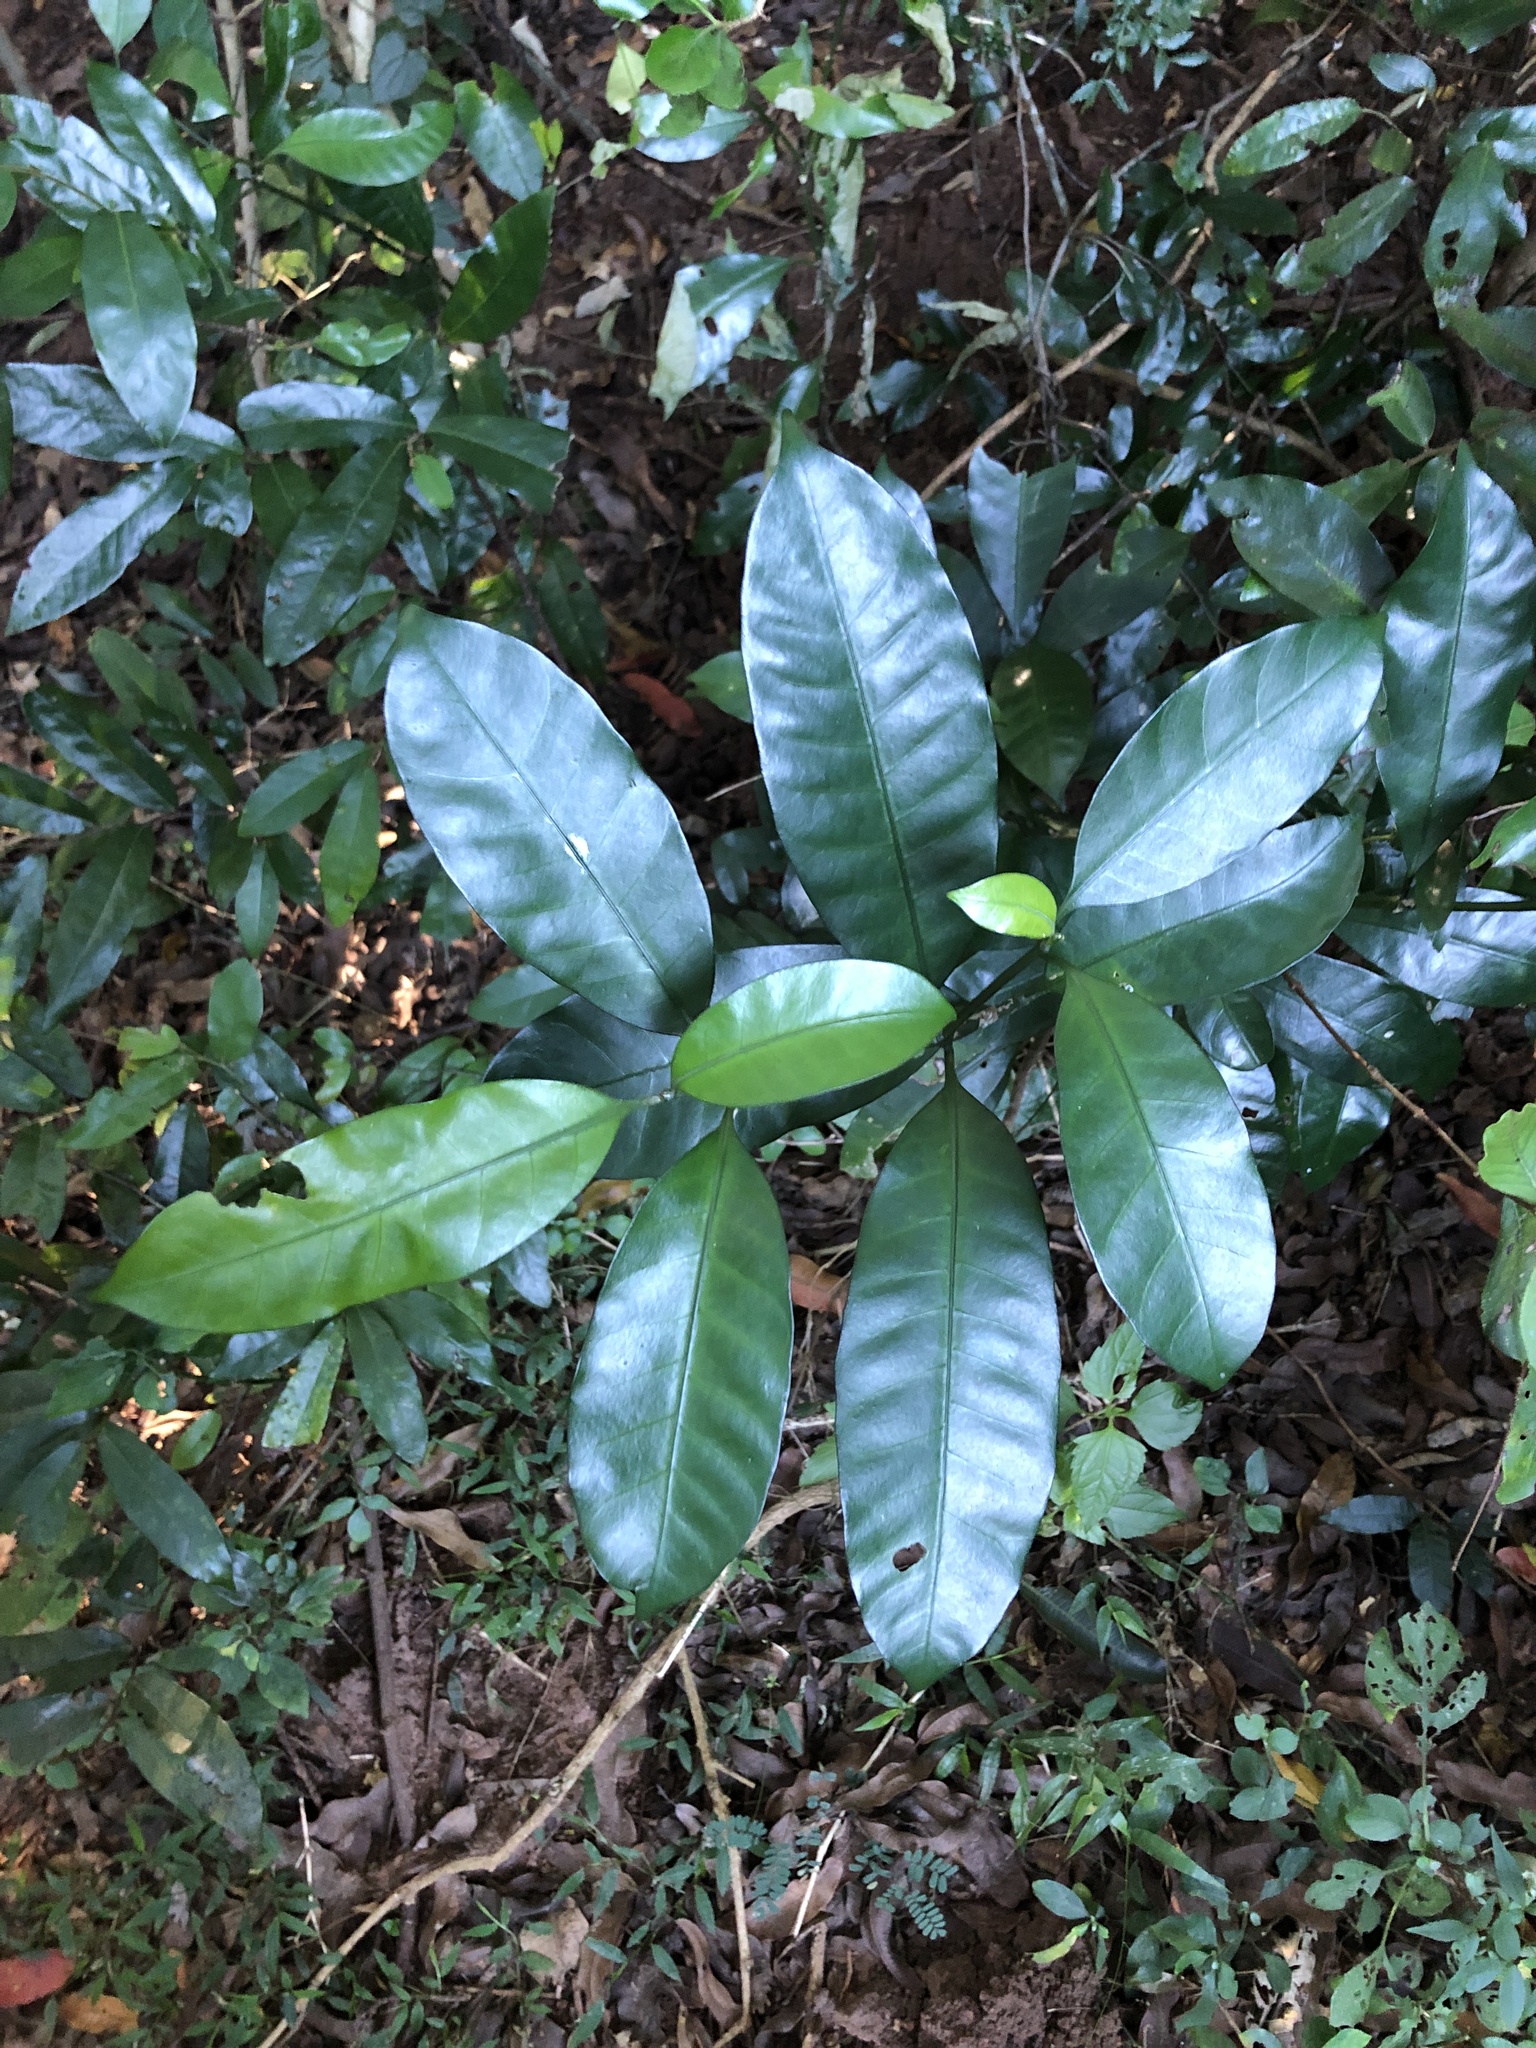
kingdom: Plantae
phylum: Tracheophyta
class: Magnoliopsida
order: Gentianales
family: Apocynaceae
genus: Tabernaemontana
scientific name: Tabernaemontana ventricosa
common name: Forest toad-tree
